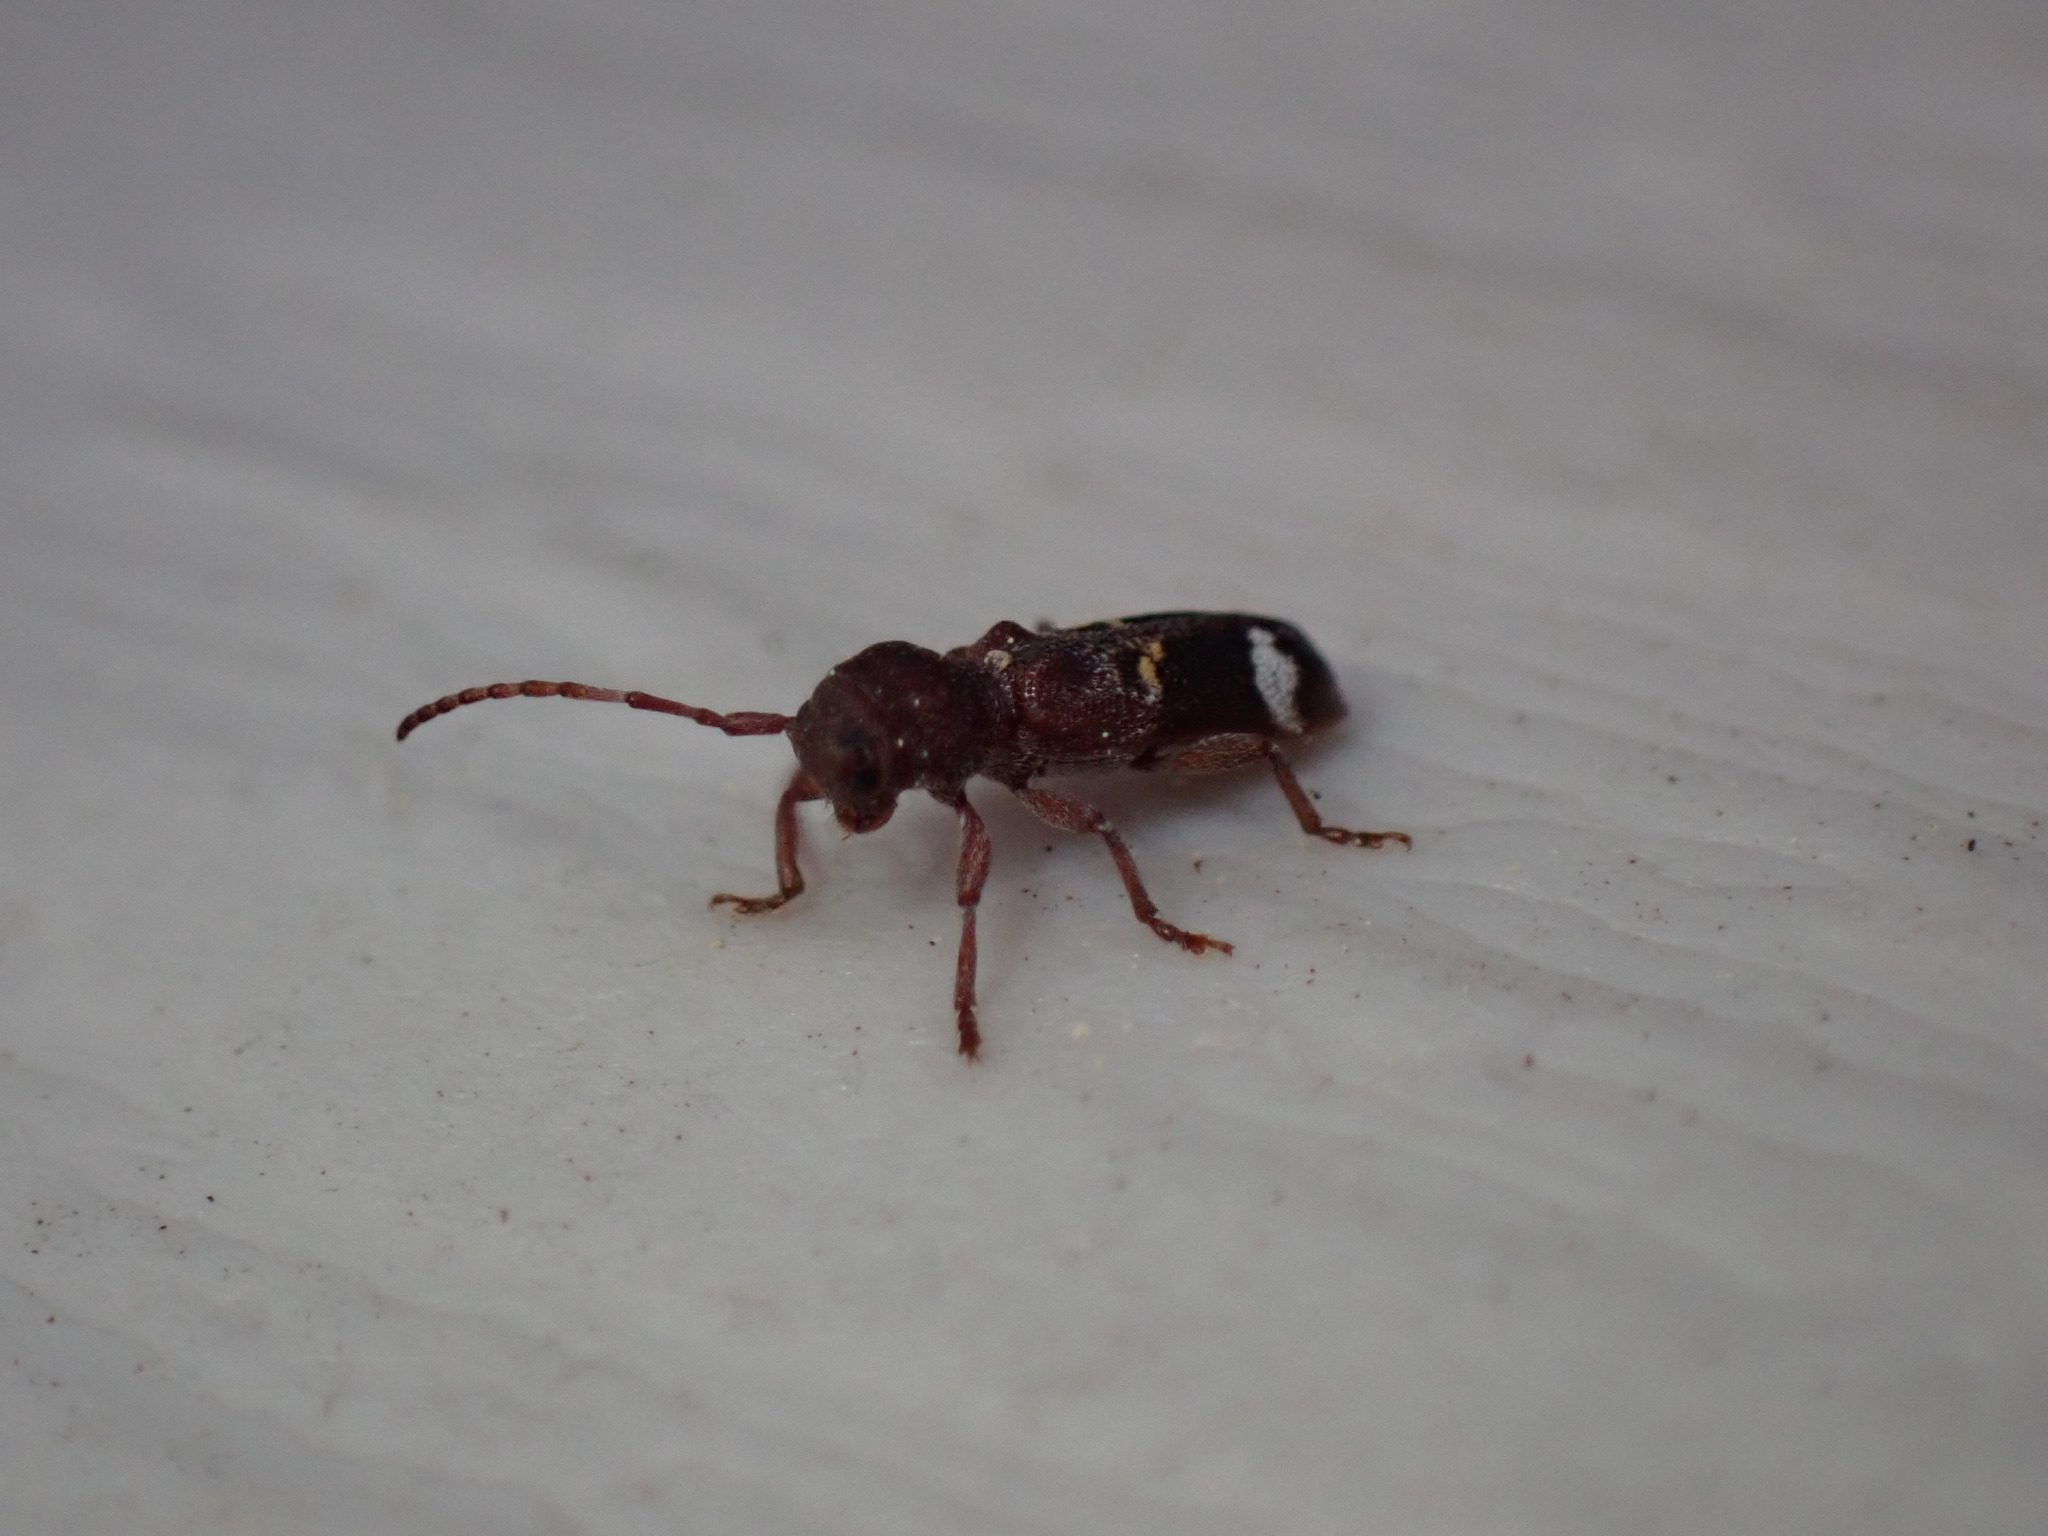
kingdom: Animalia
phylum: Arthropoda
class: Insecta
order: Coleoptera
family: Cerambycidae
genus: Psenocerus
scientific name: Psenocerus supernotatus
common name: Currant-tip borer
